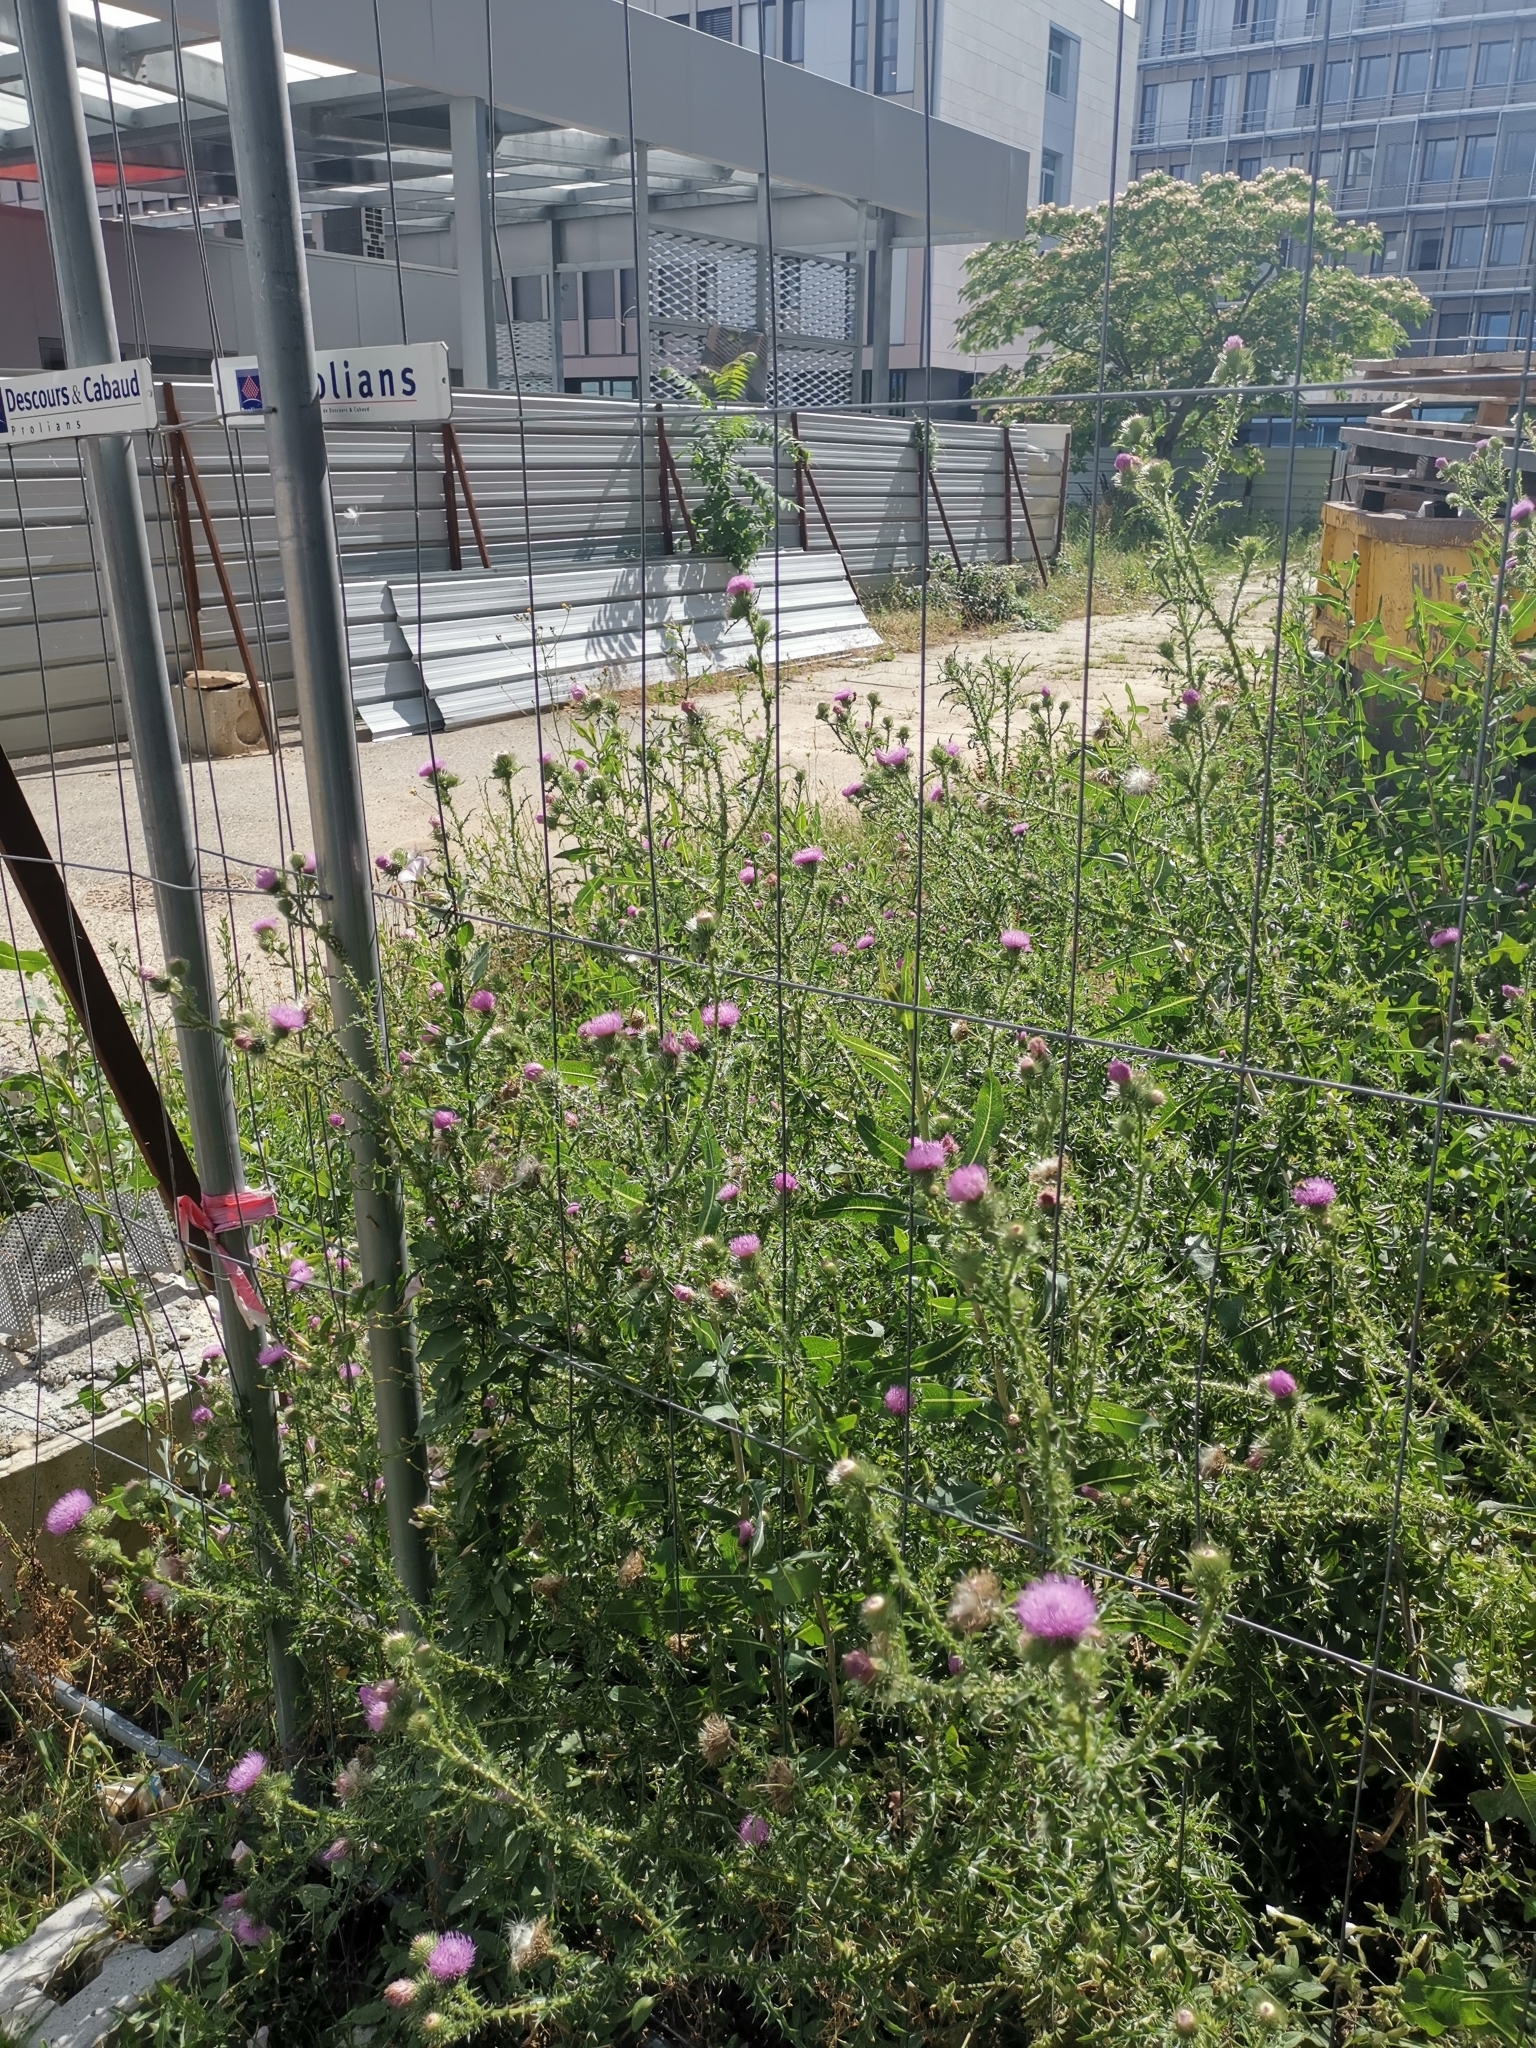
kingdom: Plantae
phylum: Tracheophyta
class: Magnoliopsida
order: Asterales
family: Asteraceae
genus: Carduus
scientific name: Carduus acanthoides
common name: Plumeless thistle
